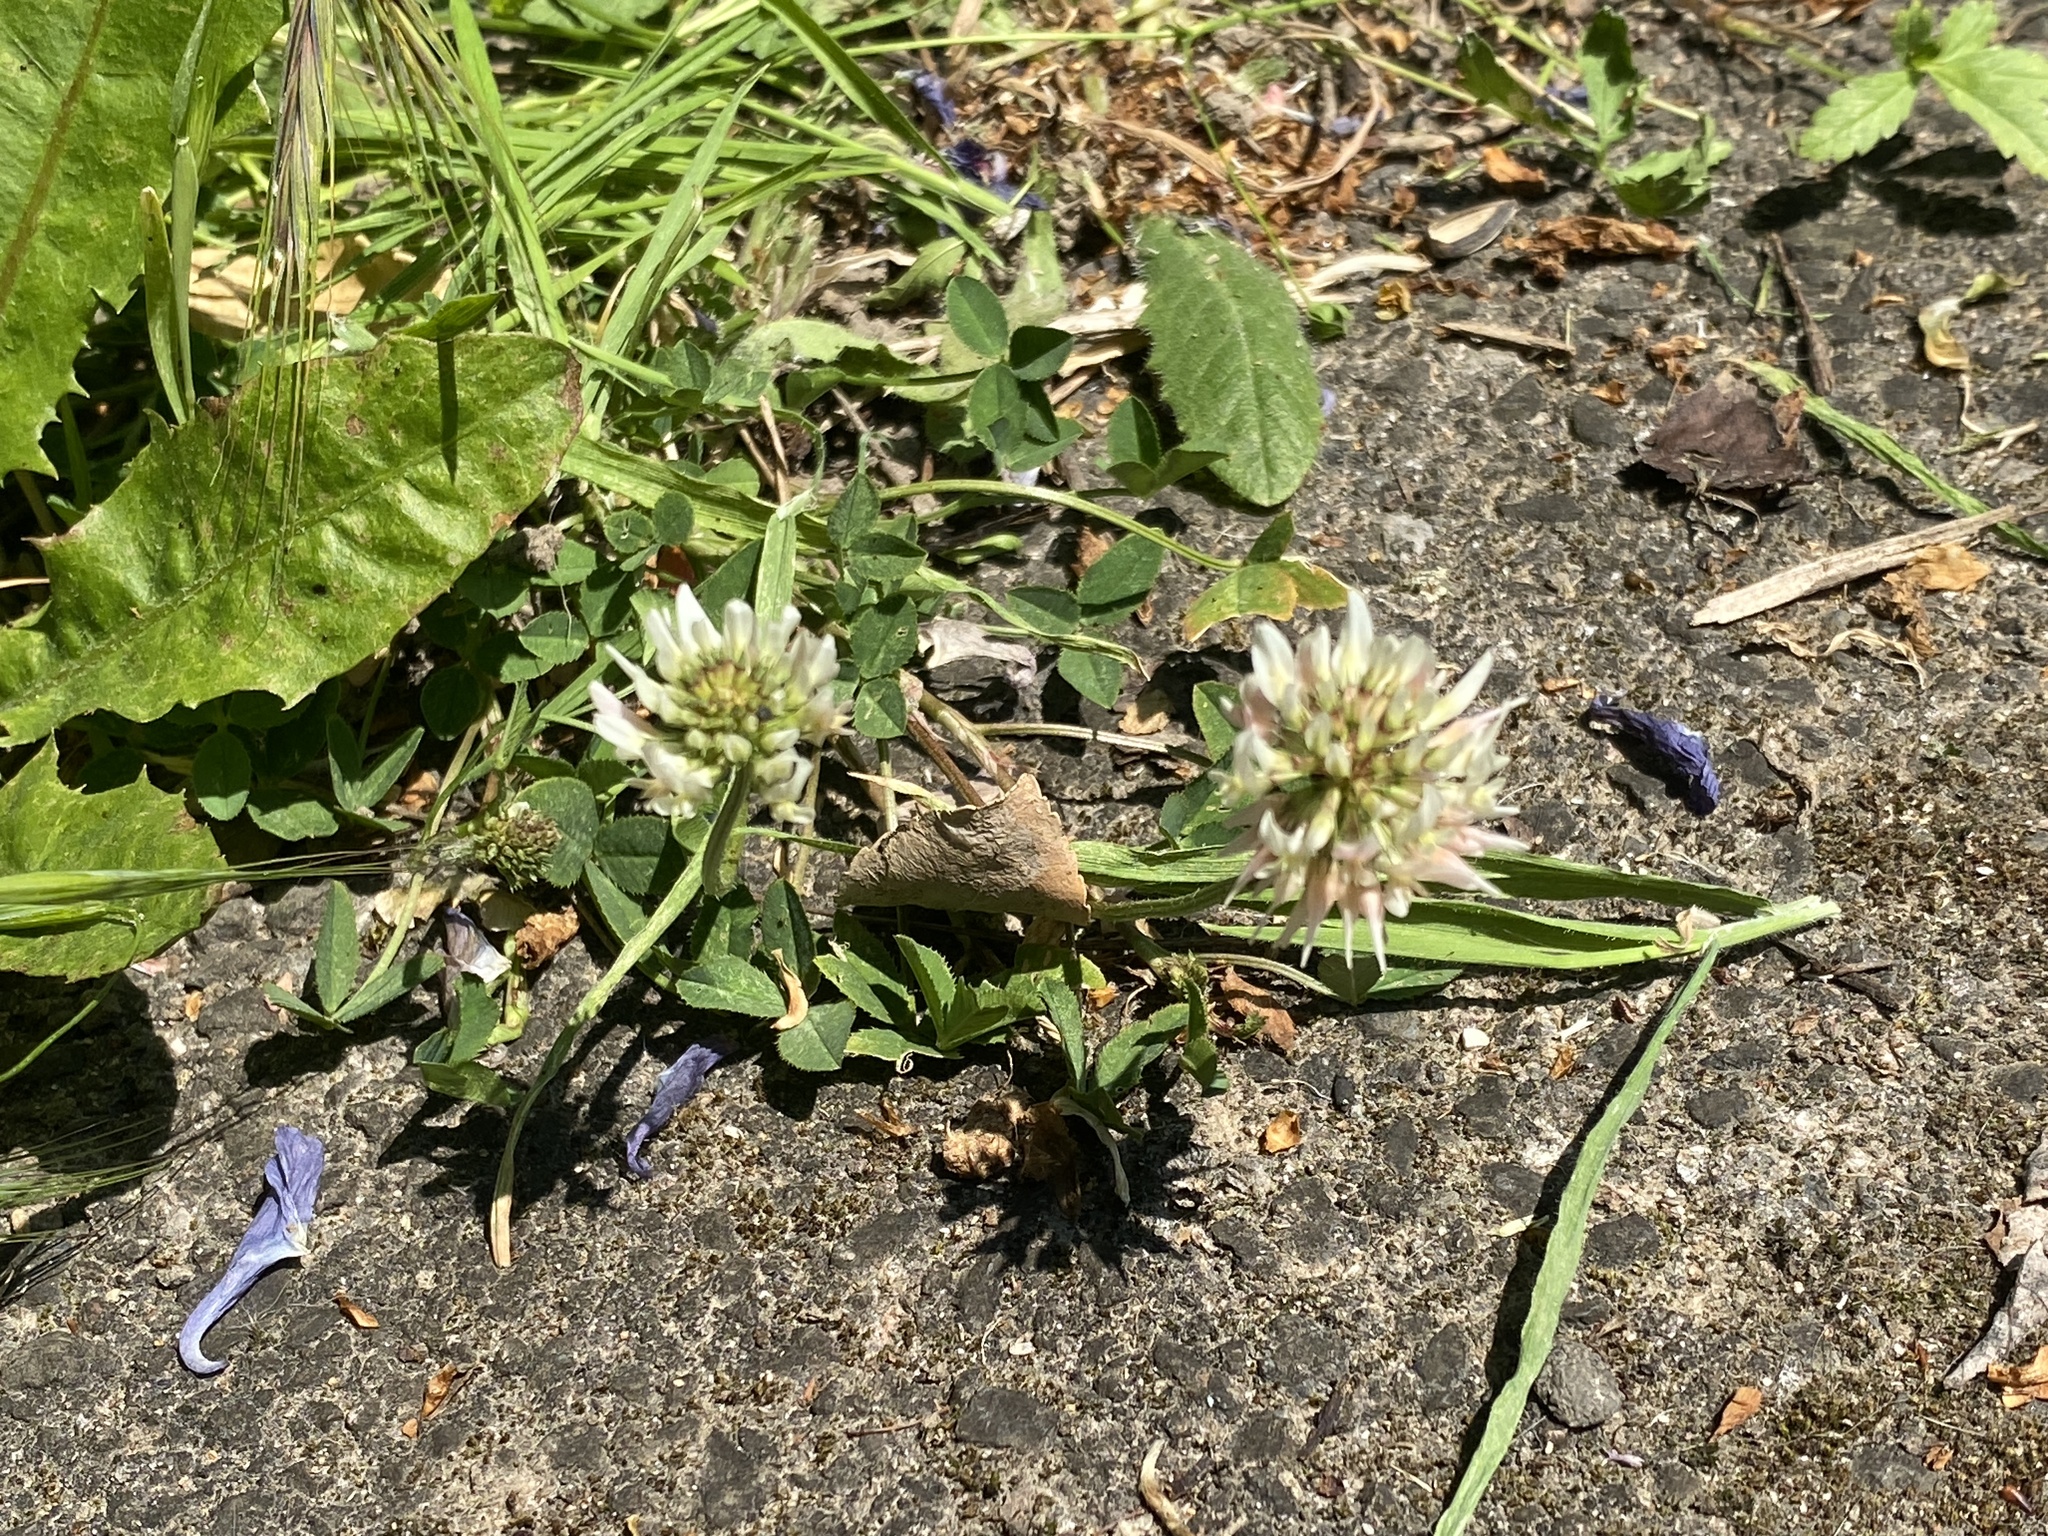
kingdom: Plantae
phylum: Tracheophyta
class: Magnoliopsida
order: Fabales
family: Fabaceae
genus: Trifolium
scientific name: Trifolium repens
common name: White clover
